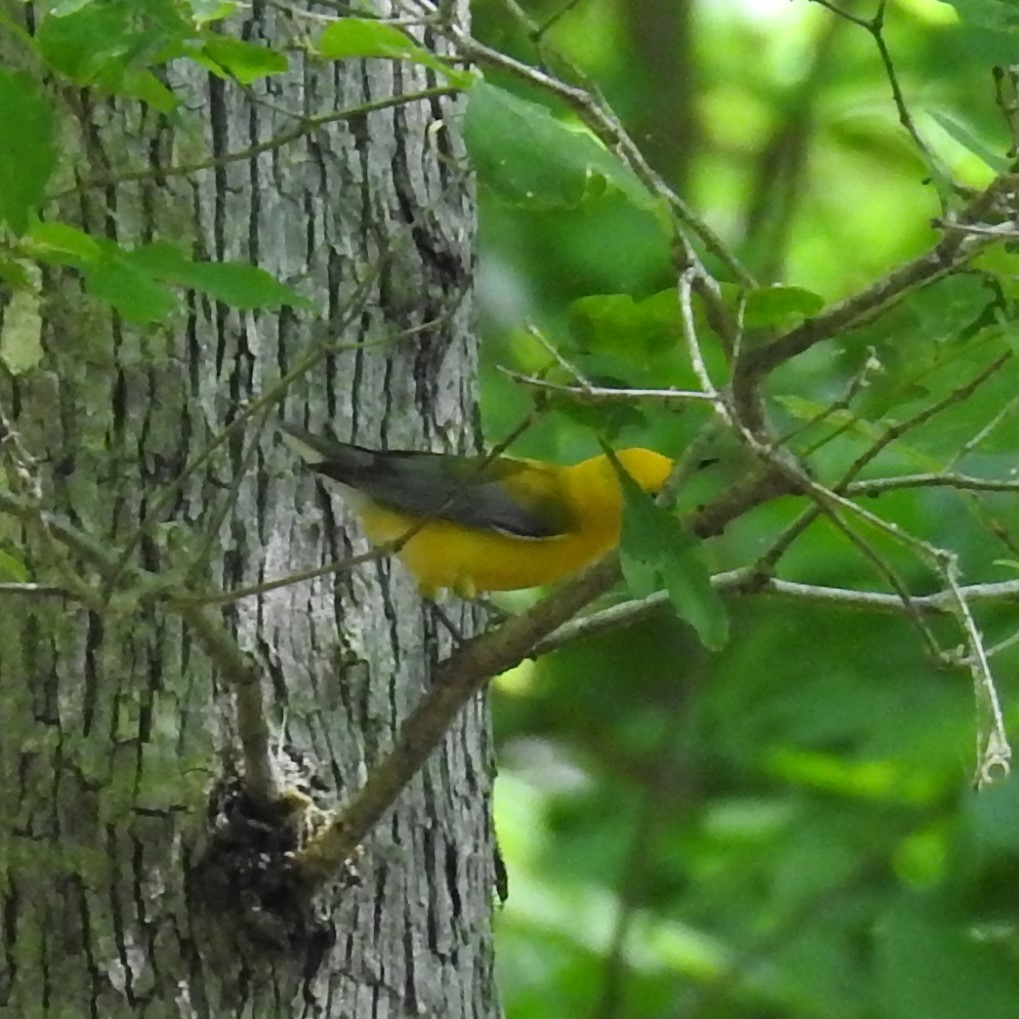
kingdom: Animalia
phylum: Chordata
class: Aves
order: Passeriformes
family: Parulidae
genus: Protonotaria
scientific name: Protonotaria citrea
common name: Prothonotary warbler
